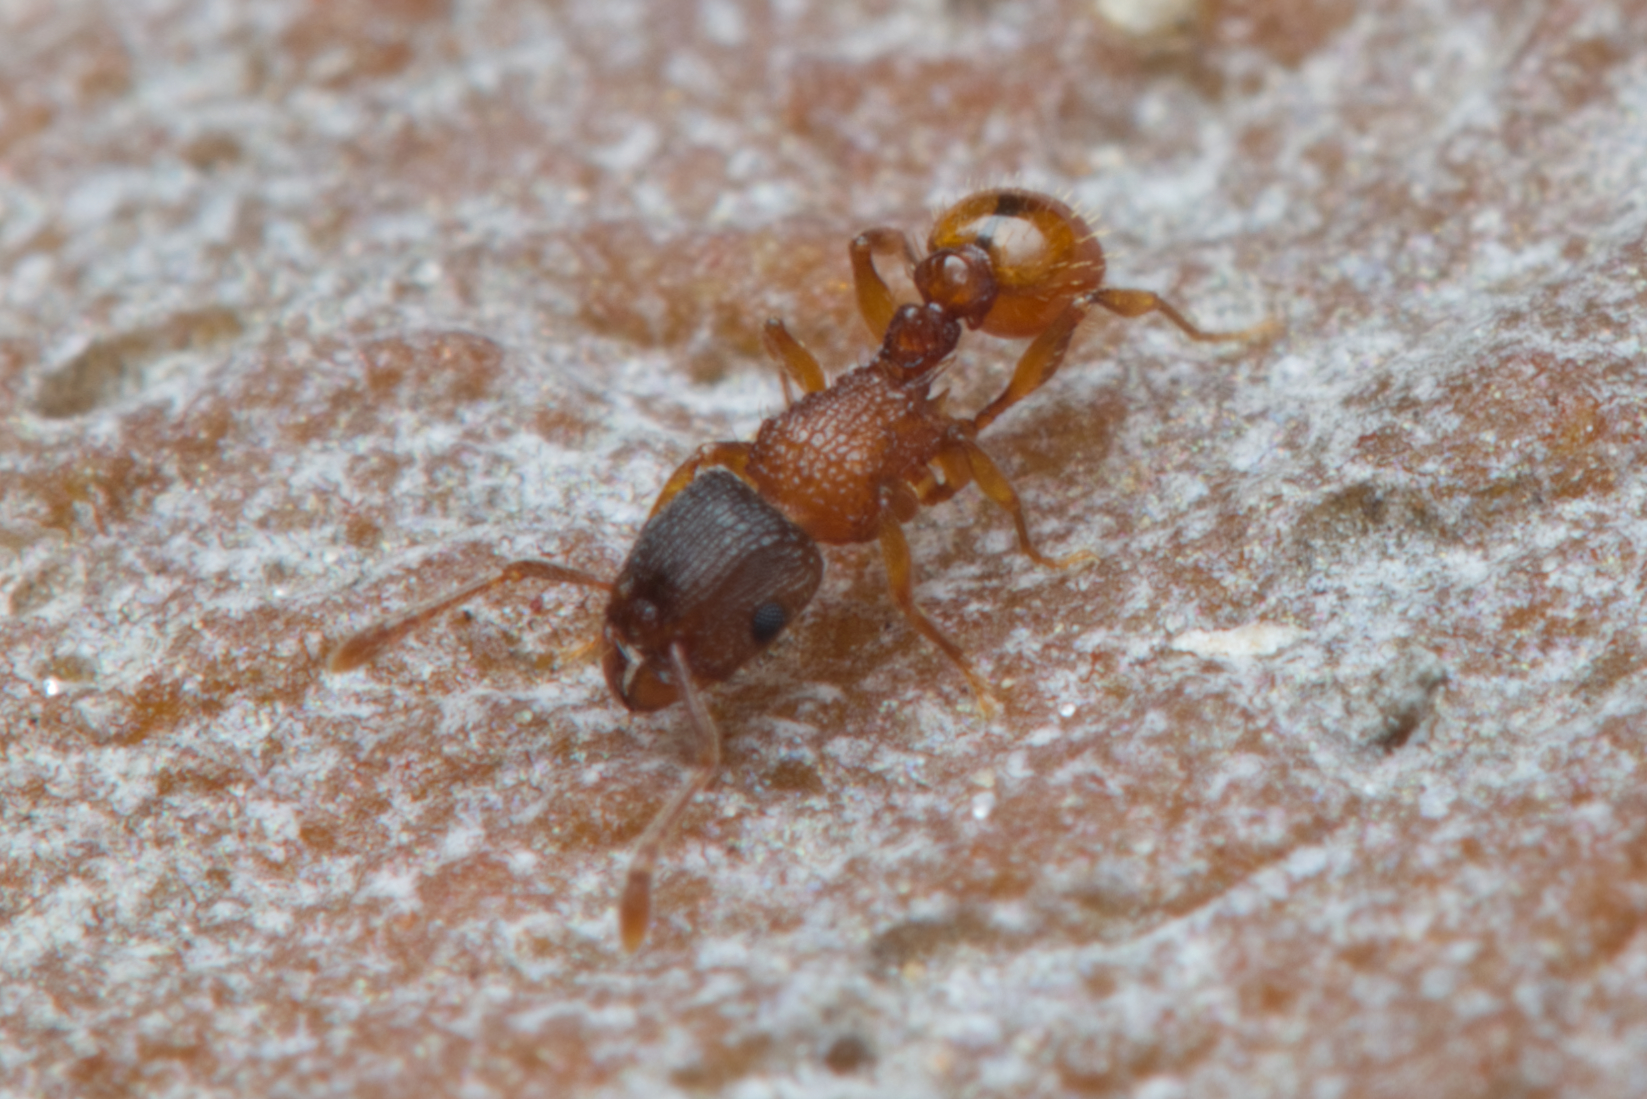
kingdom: Animalia
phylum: Arthropoda
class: Insecta
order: Hymenoptera
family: Formicidae
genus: Tetramorium
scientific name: Tetramorium fuscipes
